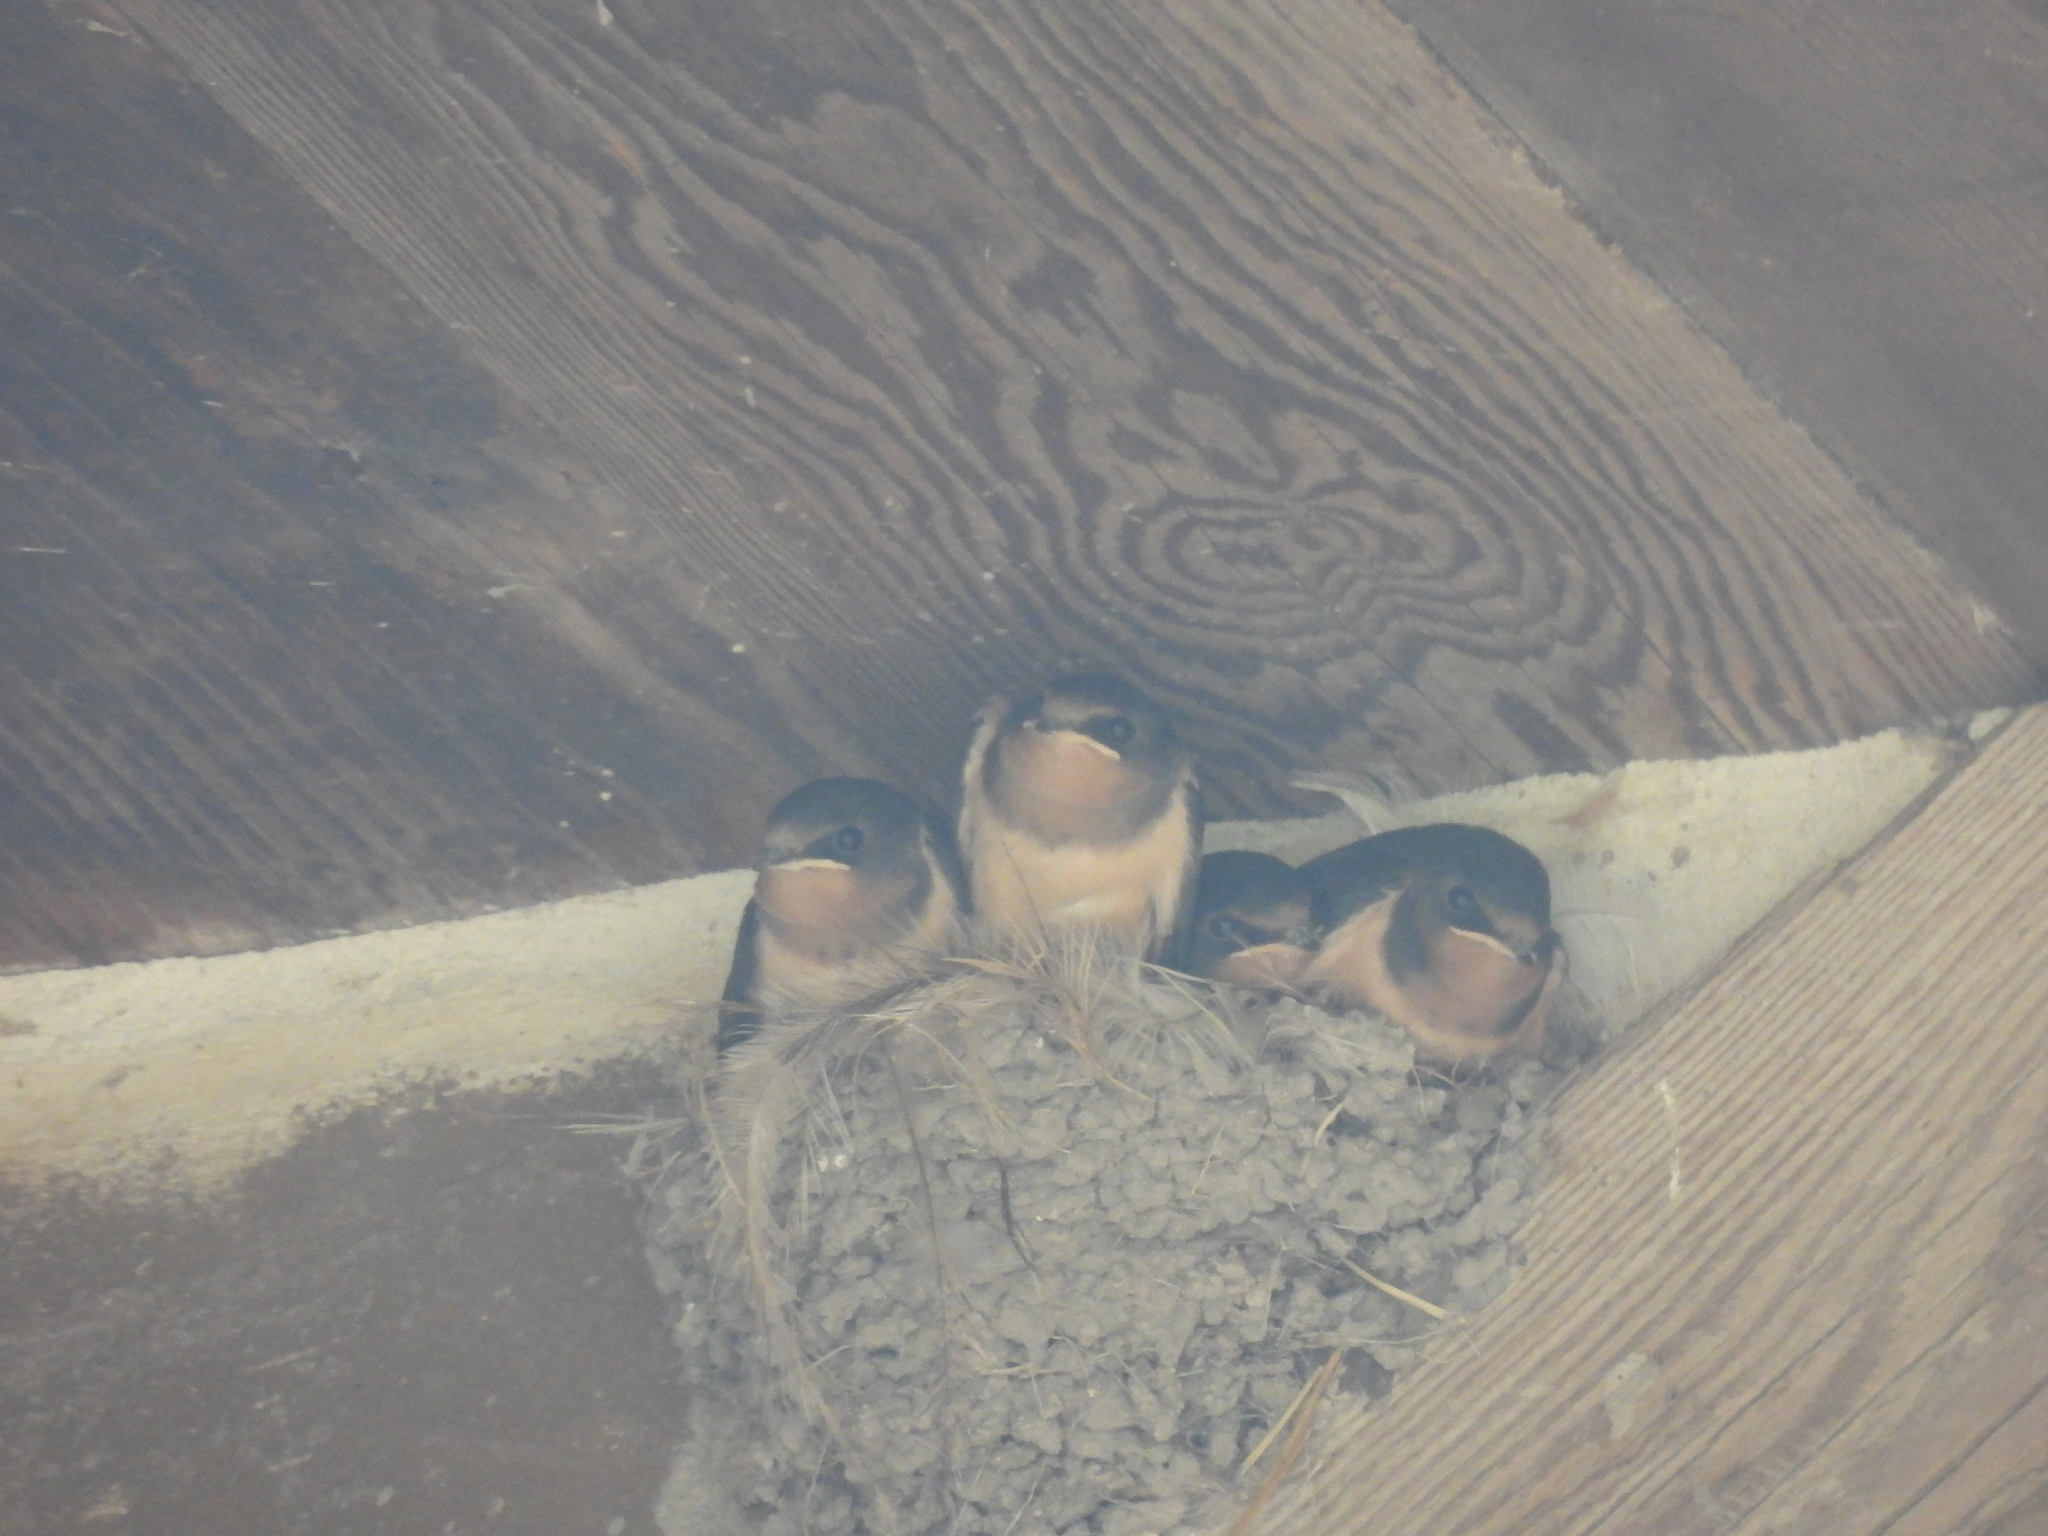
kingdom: Animalia
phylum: Chordata
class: Aves
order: Passeriformes
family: Hirundinidae
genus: Hirundo
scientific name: Hirundo rustica
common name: Barn swallow
